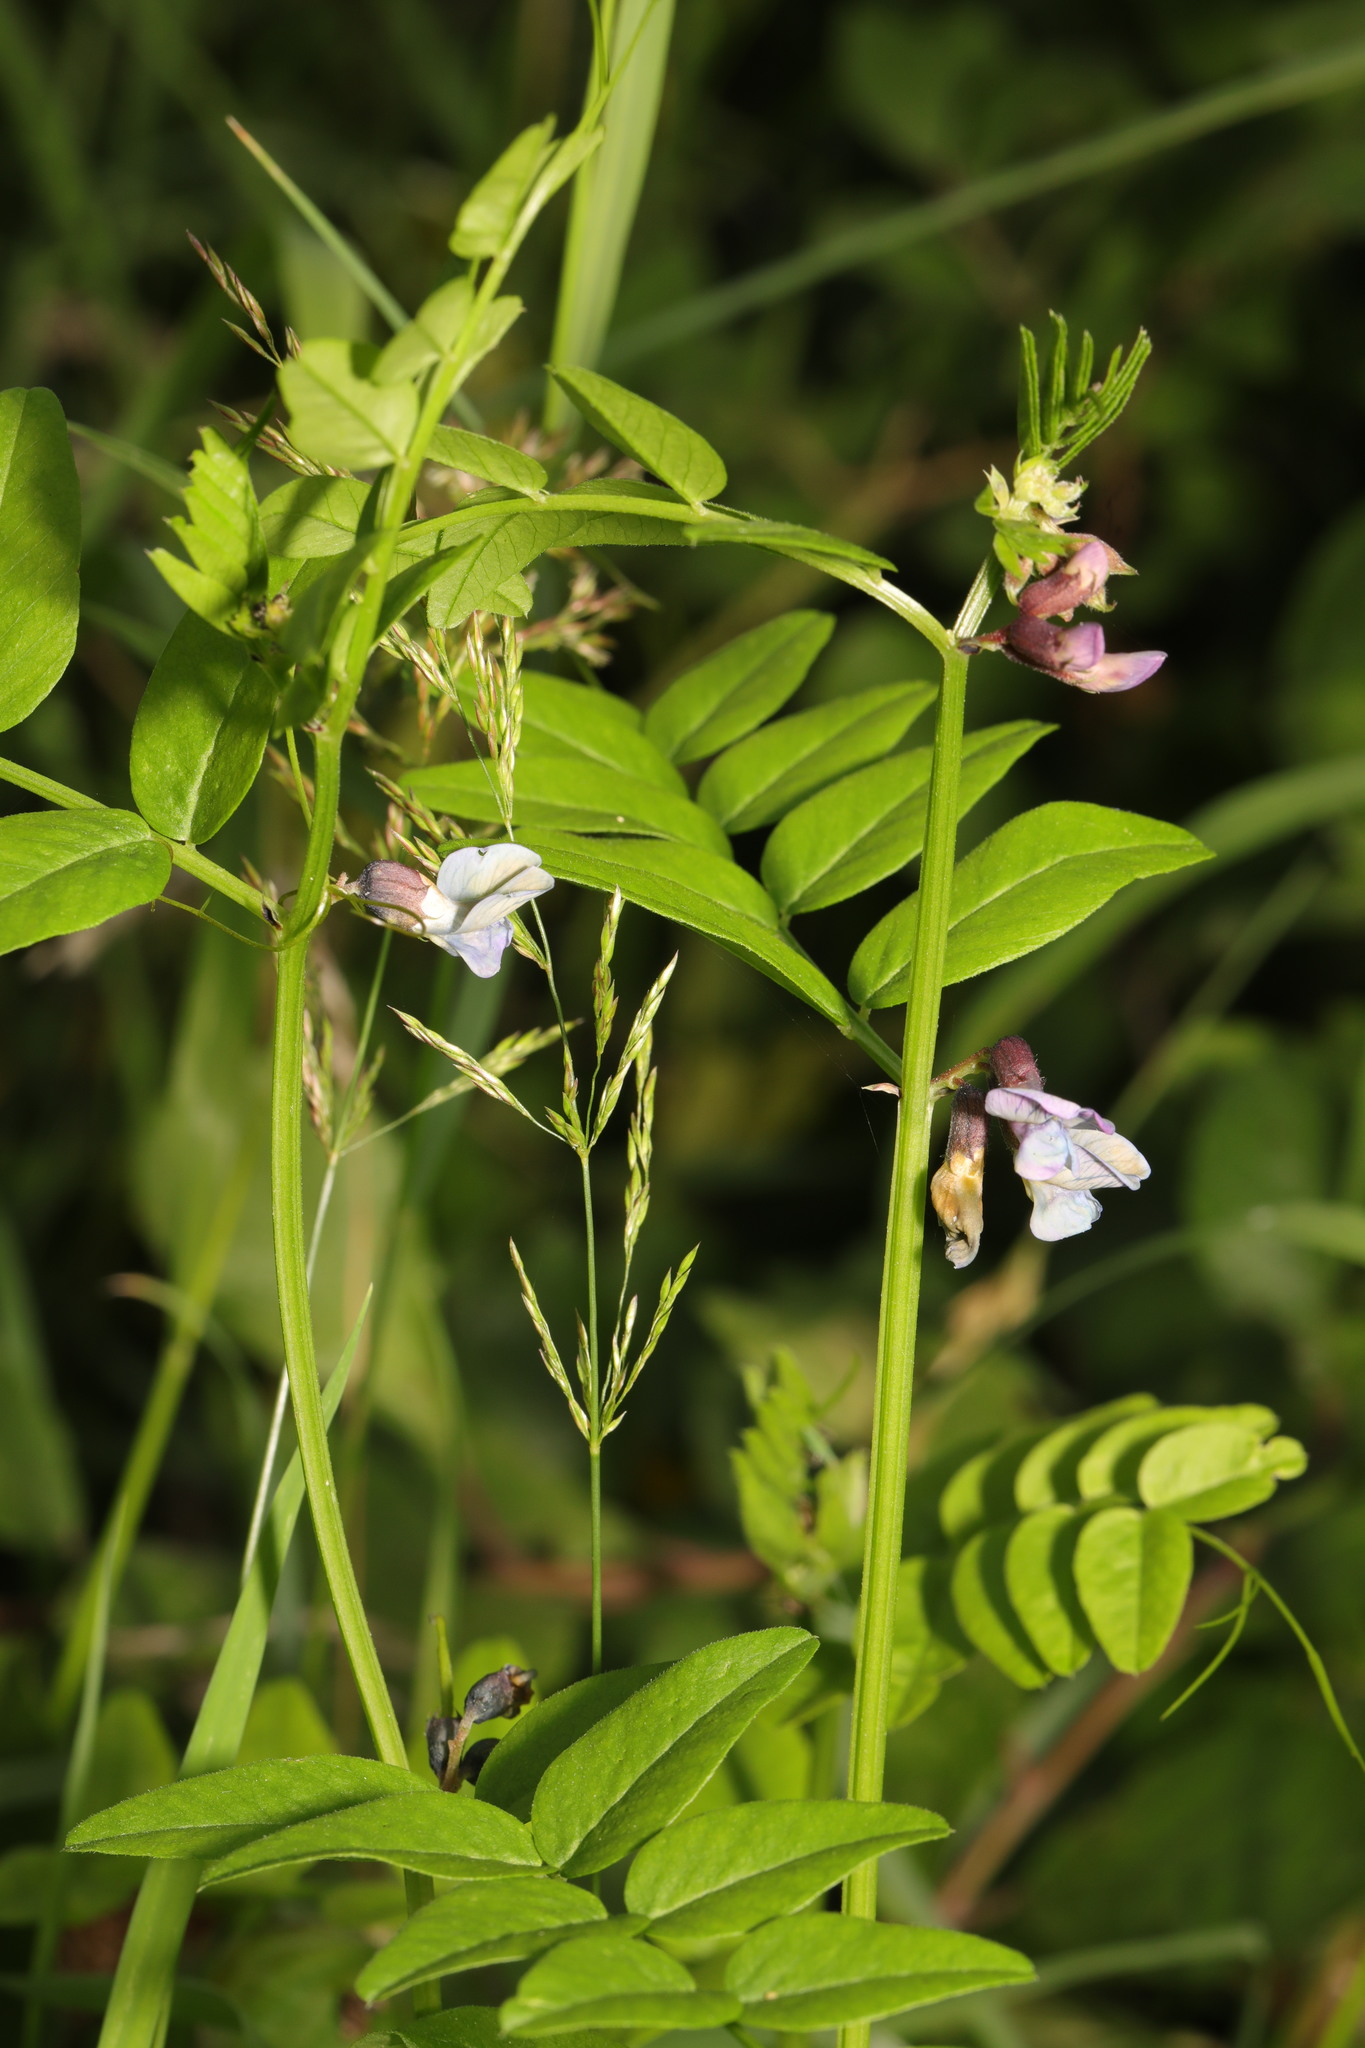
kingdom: Plantae
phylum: Tracheophyta
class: Magnoliopsida
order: Fabales
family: Fabaceae
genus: Vicia
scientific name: Vicia sepium
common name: Bush vetch
